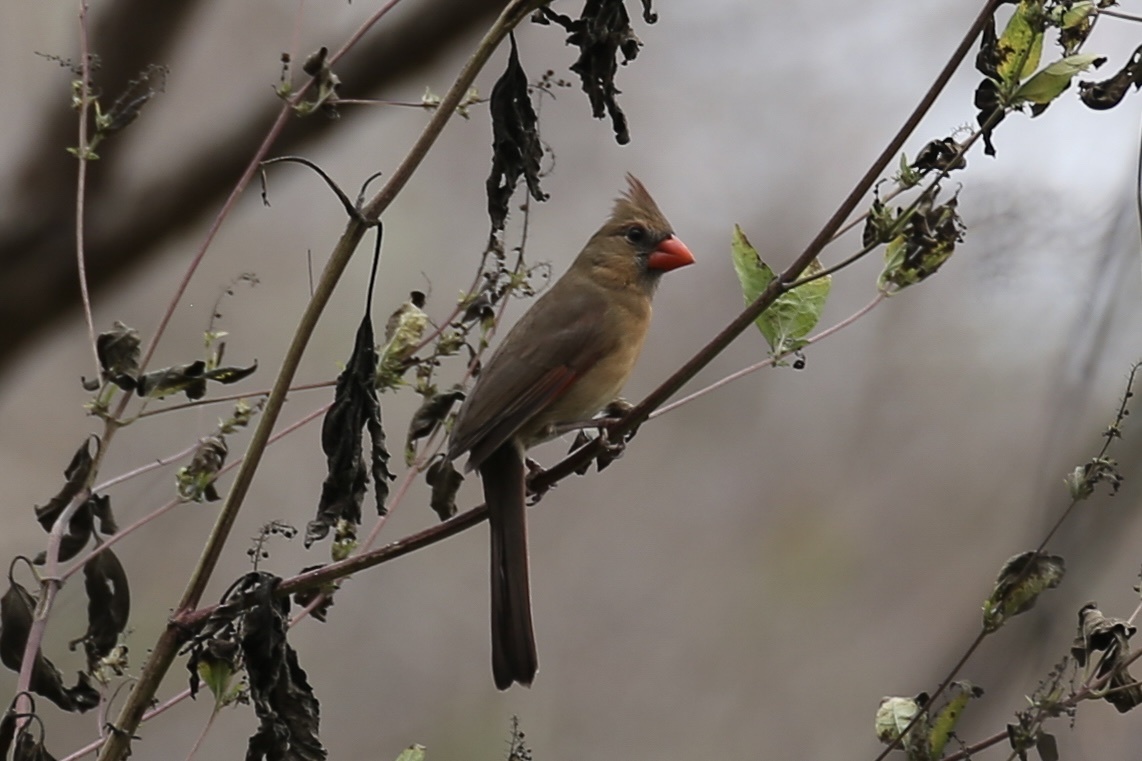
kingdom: Animalia
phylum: Chordata
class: Aves
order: Passeriformes
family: Cardinalidae
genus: Cardinalis
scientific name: Cardinalis cardinalis
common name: Northern cardinal
